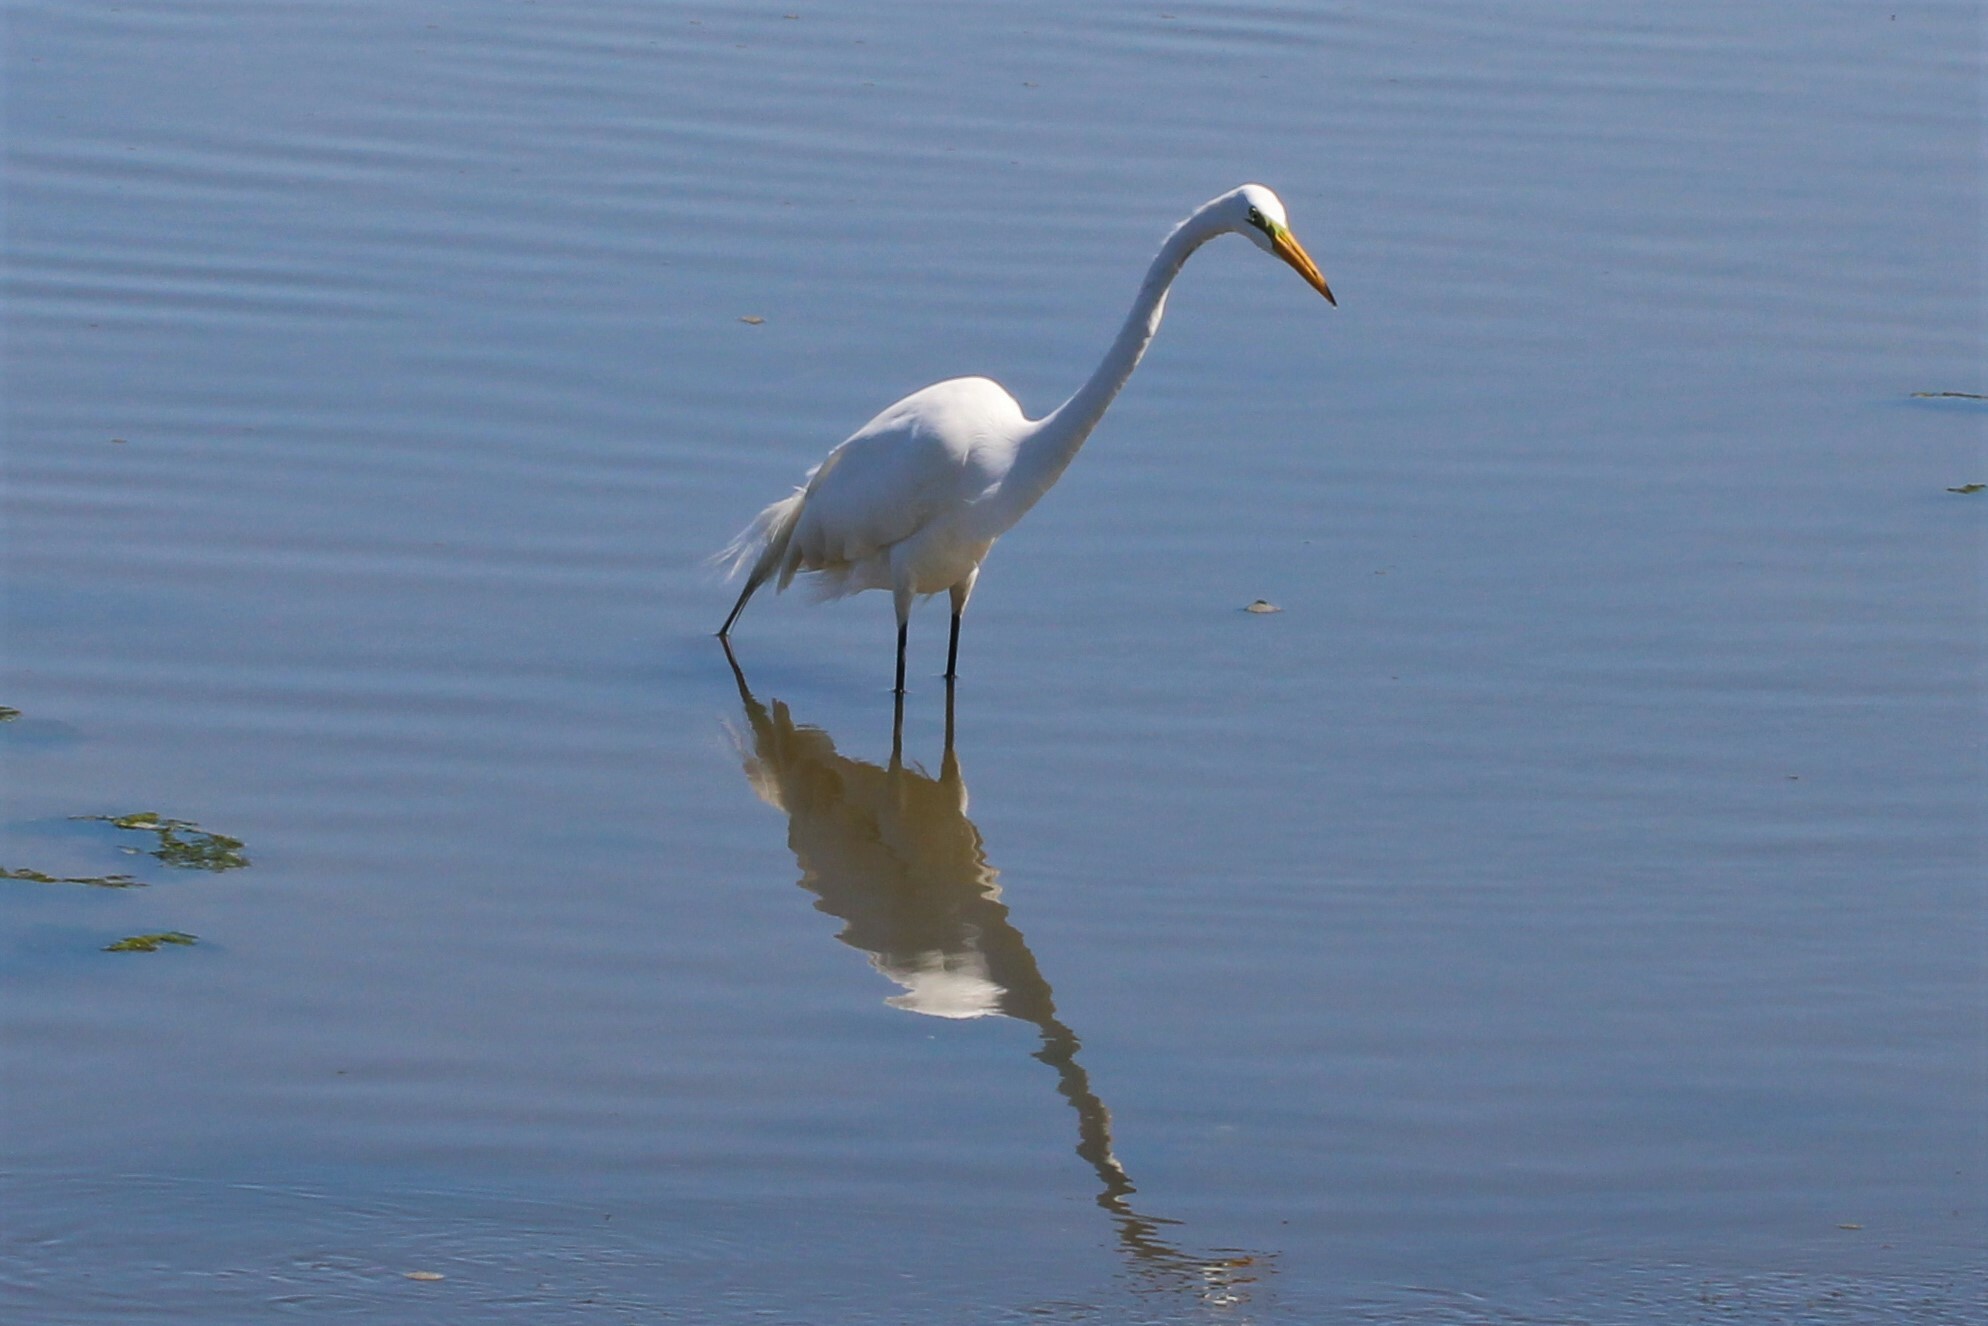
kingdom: Animalia
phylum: Chordata
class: Aves
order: Pelecaniformes
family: Ardeidae
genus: Ardea
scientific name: Ardea alba
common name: Great egret
